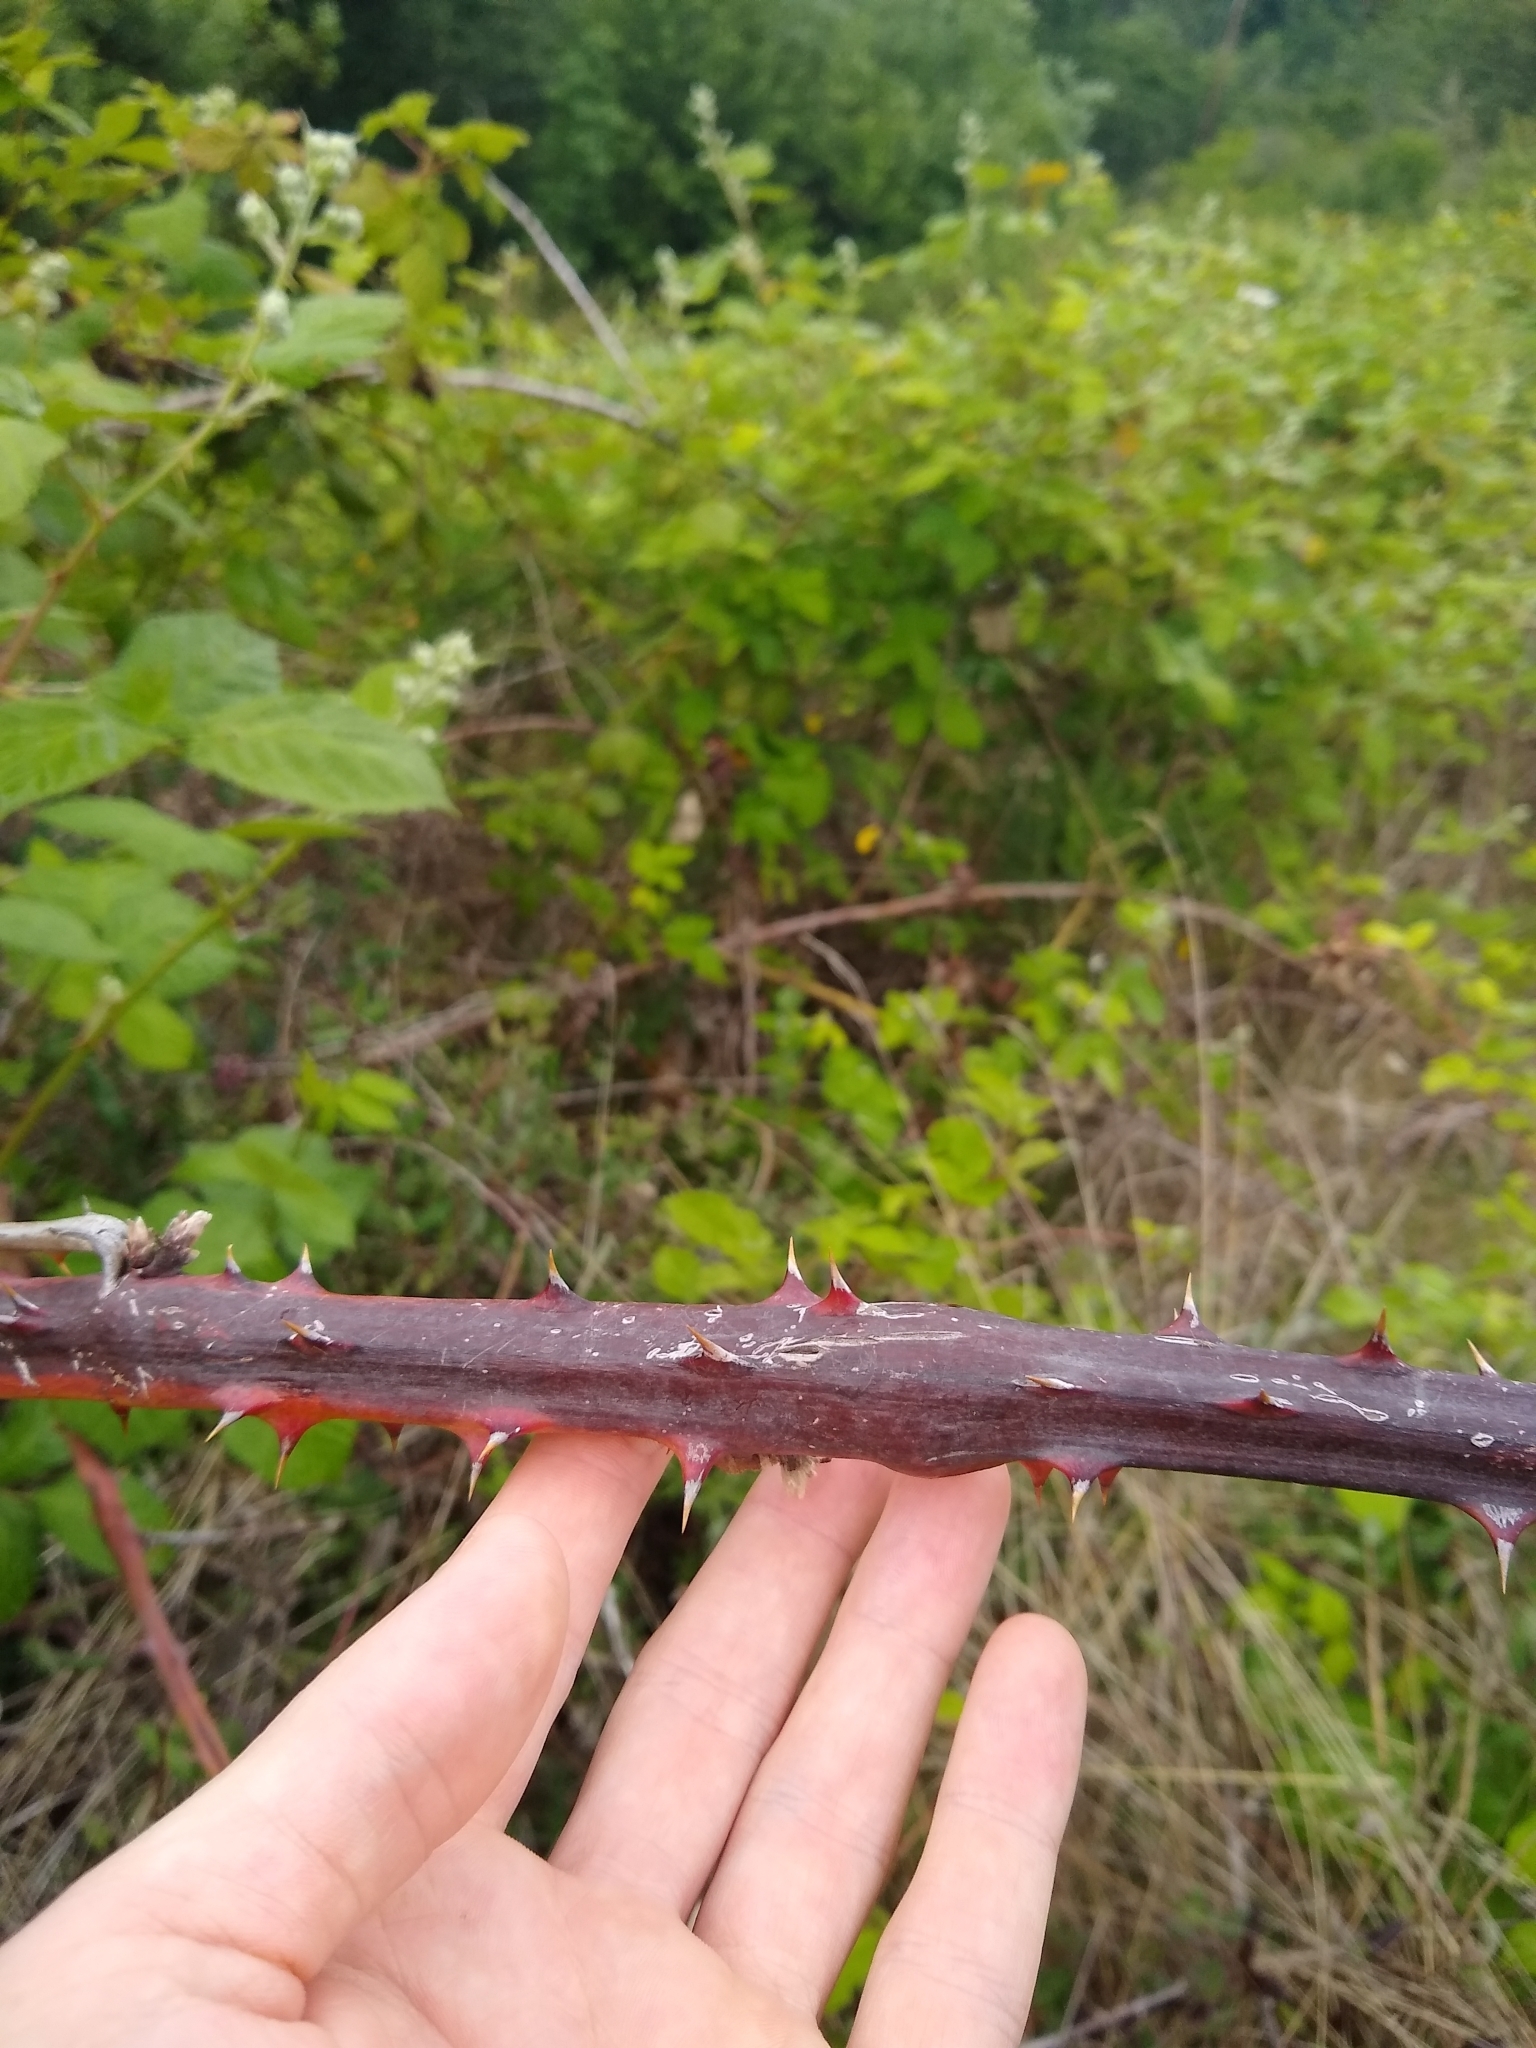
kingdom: Plantae
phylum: Tracheophyta
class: Magnoliopsida
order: Rosales
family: Rosaceae
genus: Rubus
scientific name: Rubus bifrons
